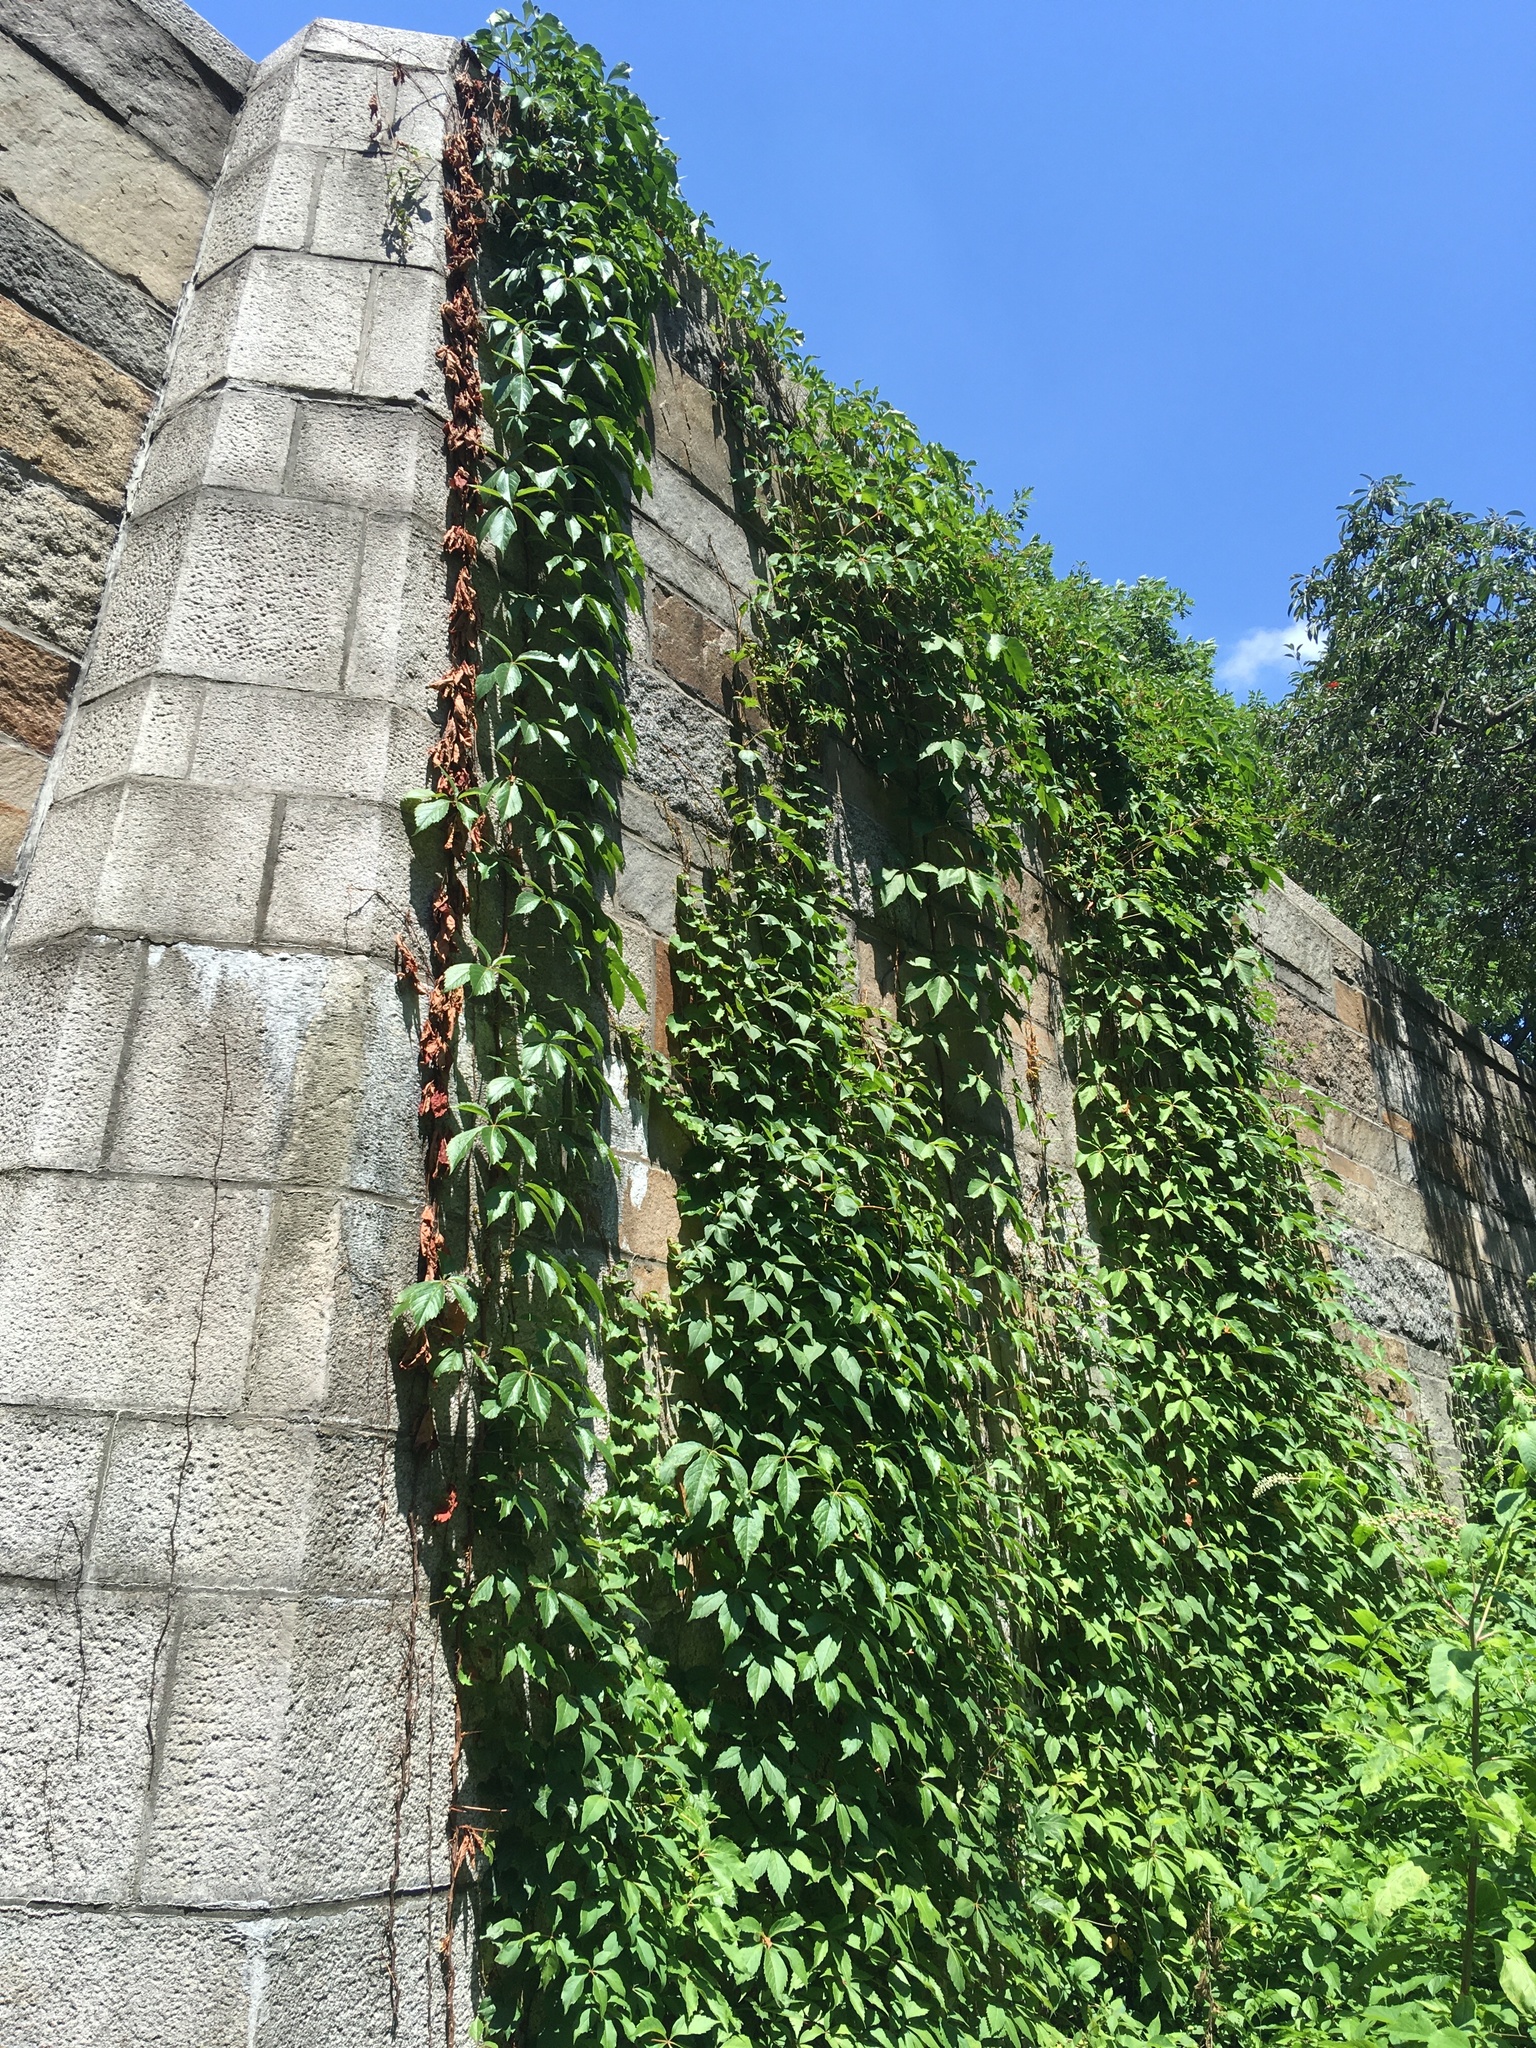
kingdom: Plantae
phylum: Tracheophyta
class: Magnoliopsida
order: Vitales
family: Vitaceae
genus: Parthenocissus
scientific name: Parthenocissus quinquefolia
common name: Virginia-creeper
